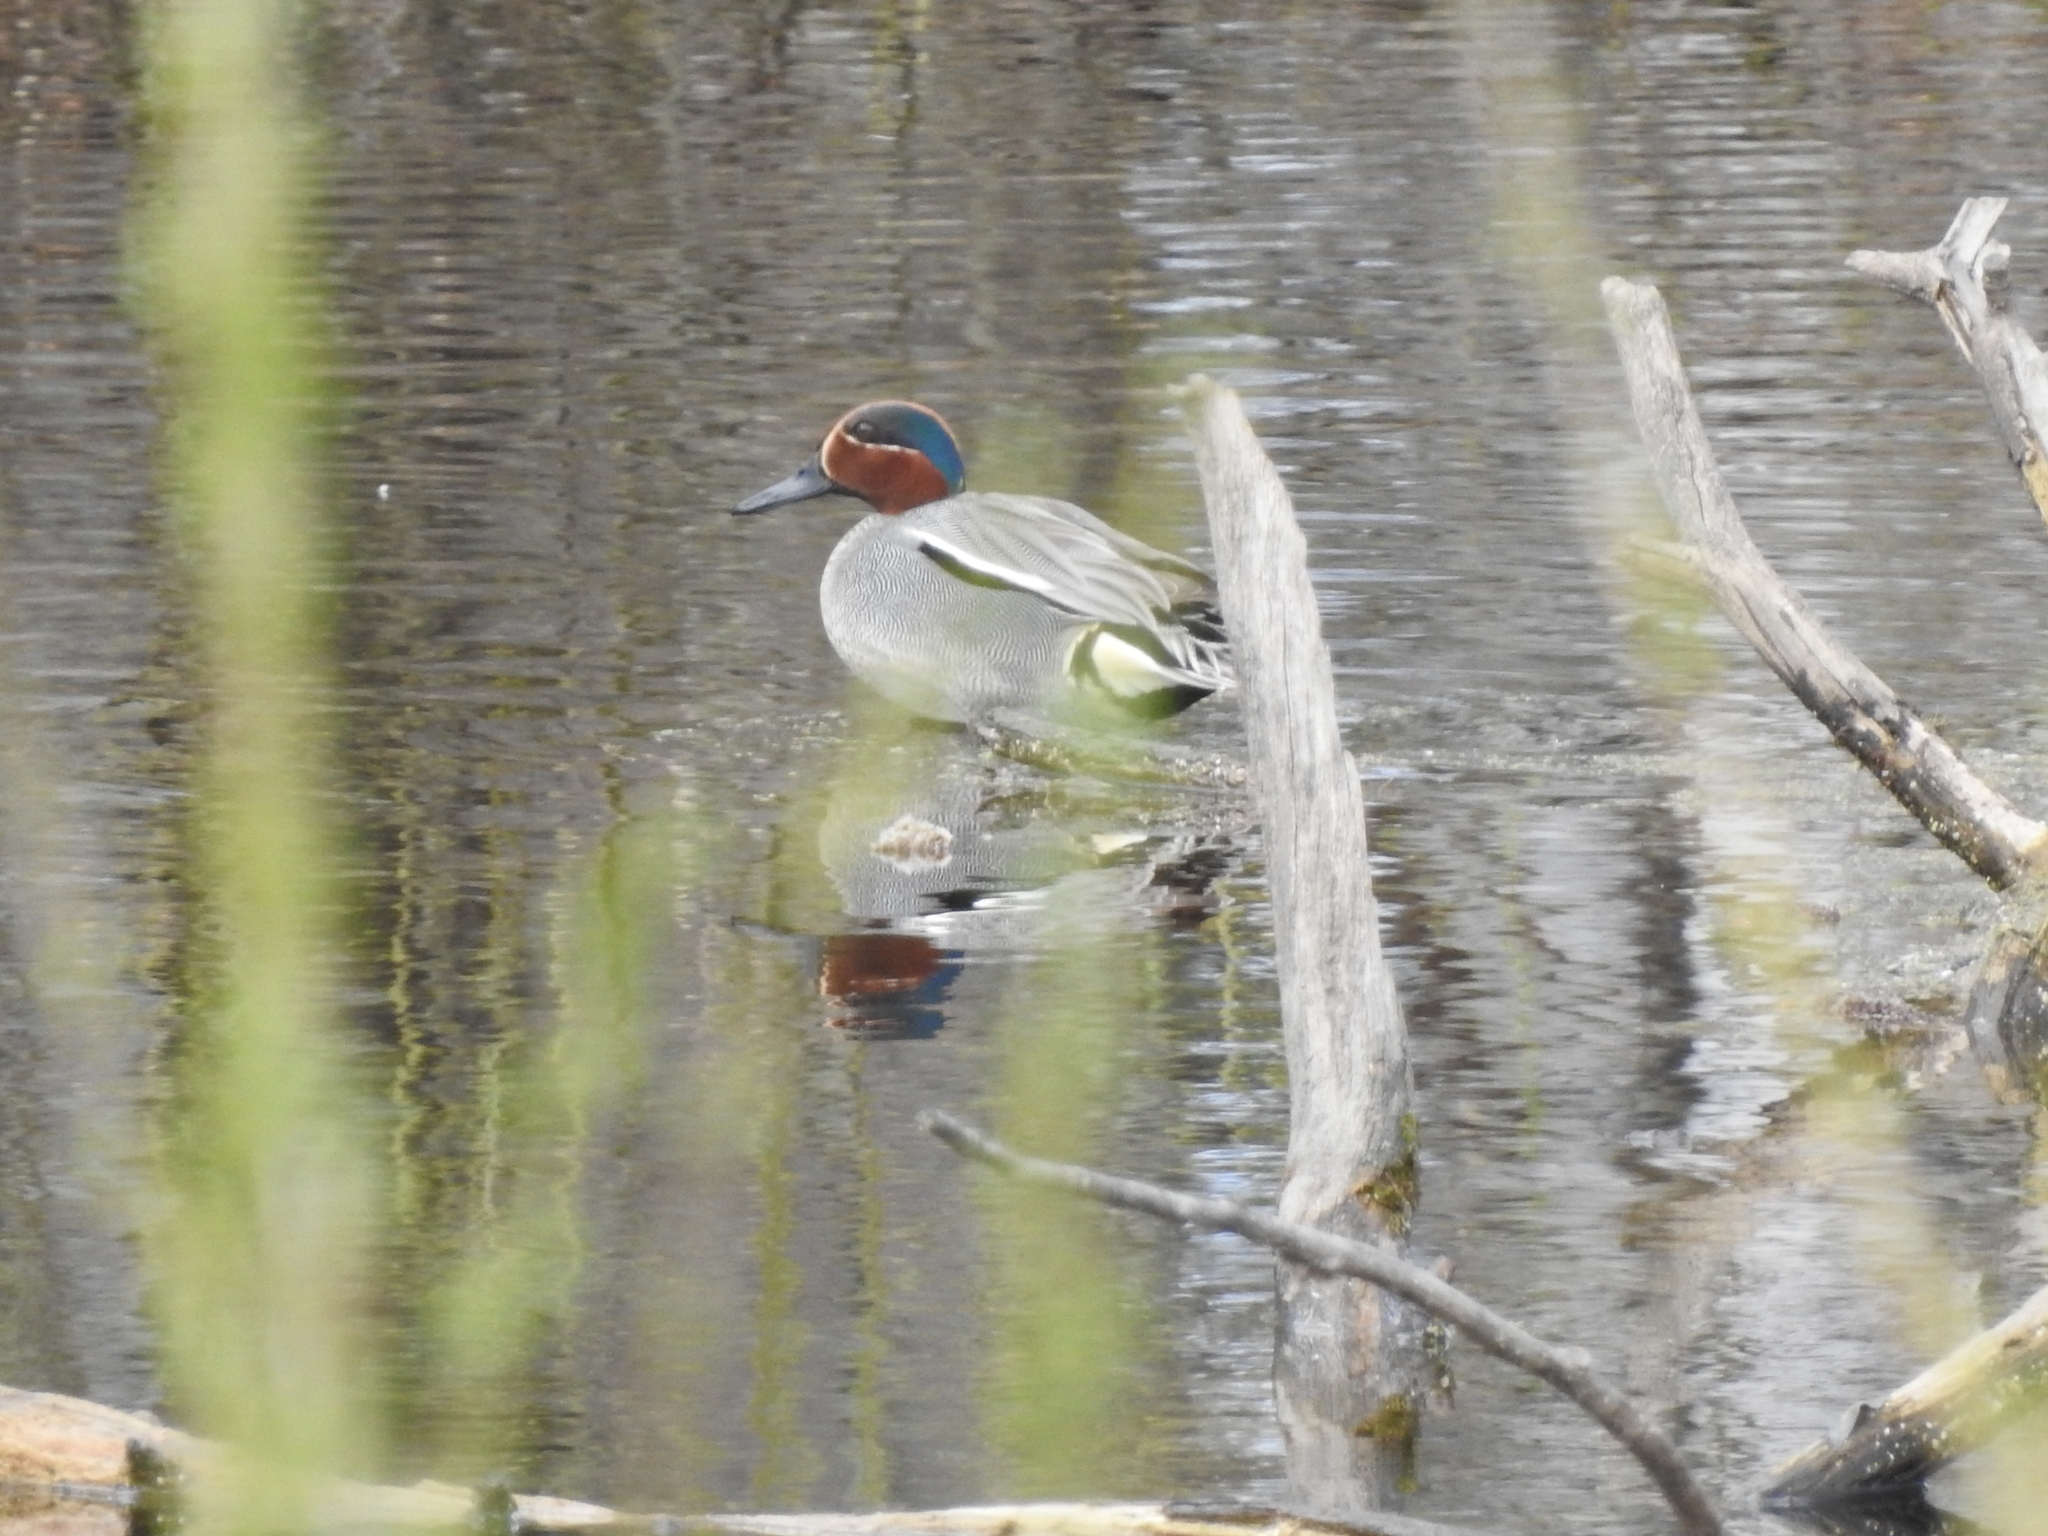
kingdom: Animalia
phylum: Chordata
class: Aves
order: Anseriformes
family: Anatidae
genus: Anas
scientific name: Anas crecca
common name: Eurasian teal
